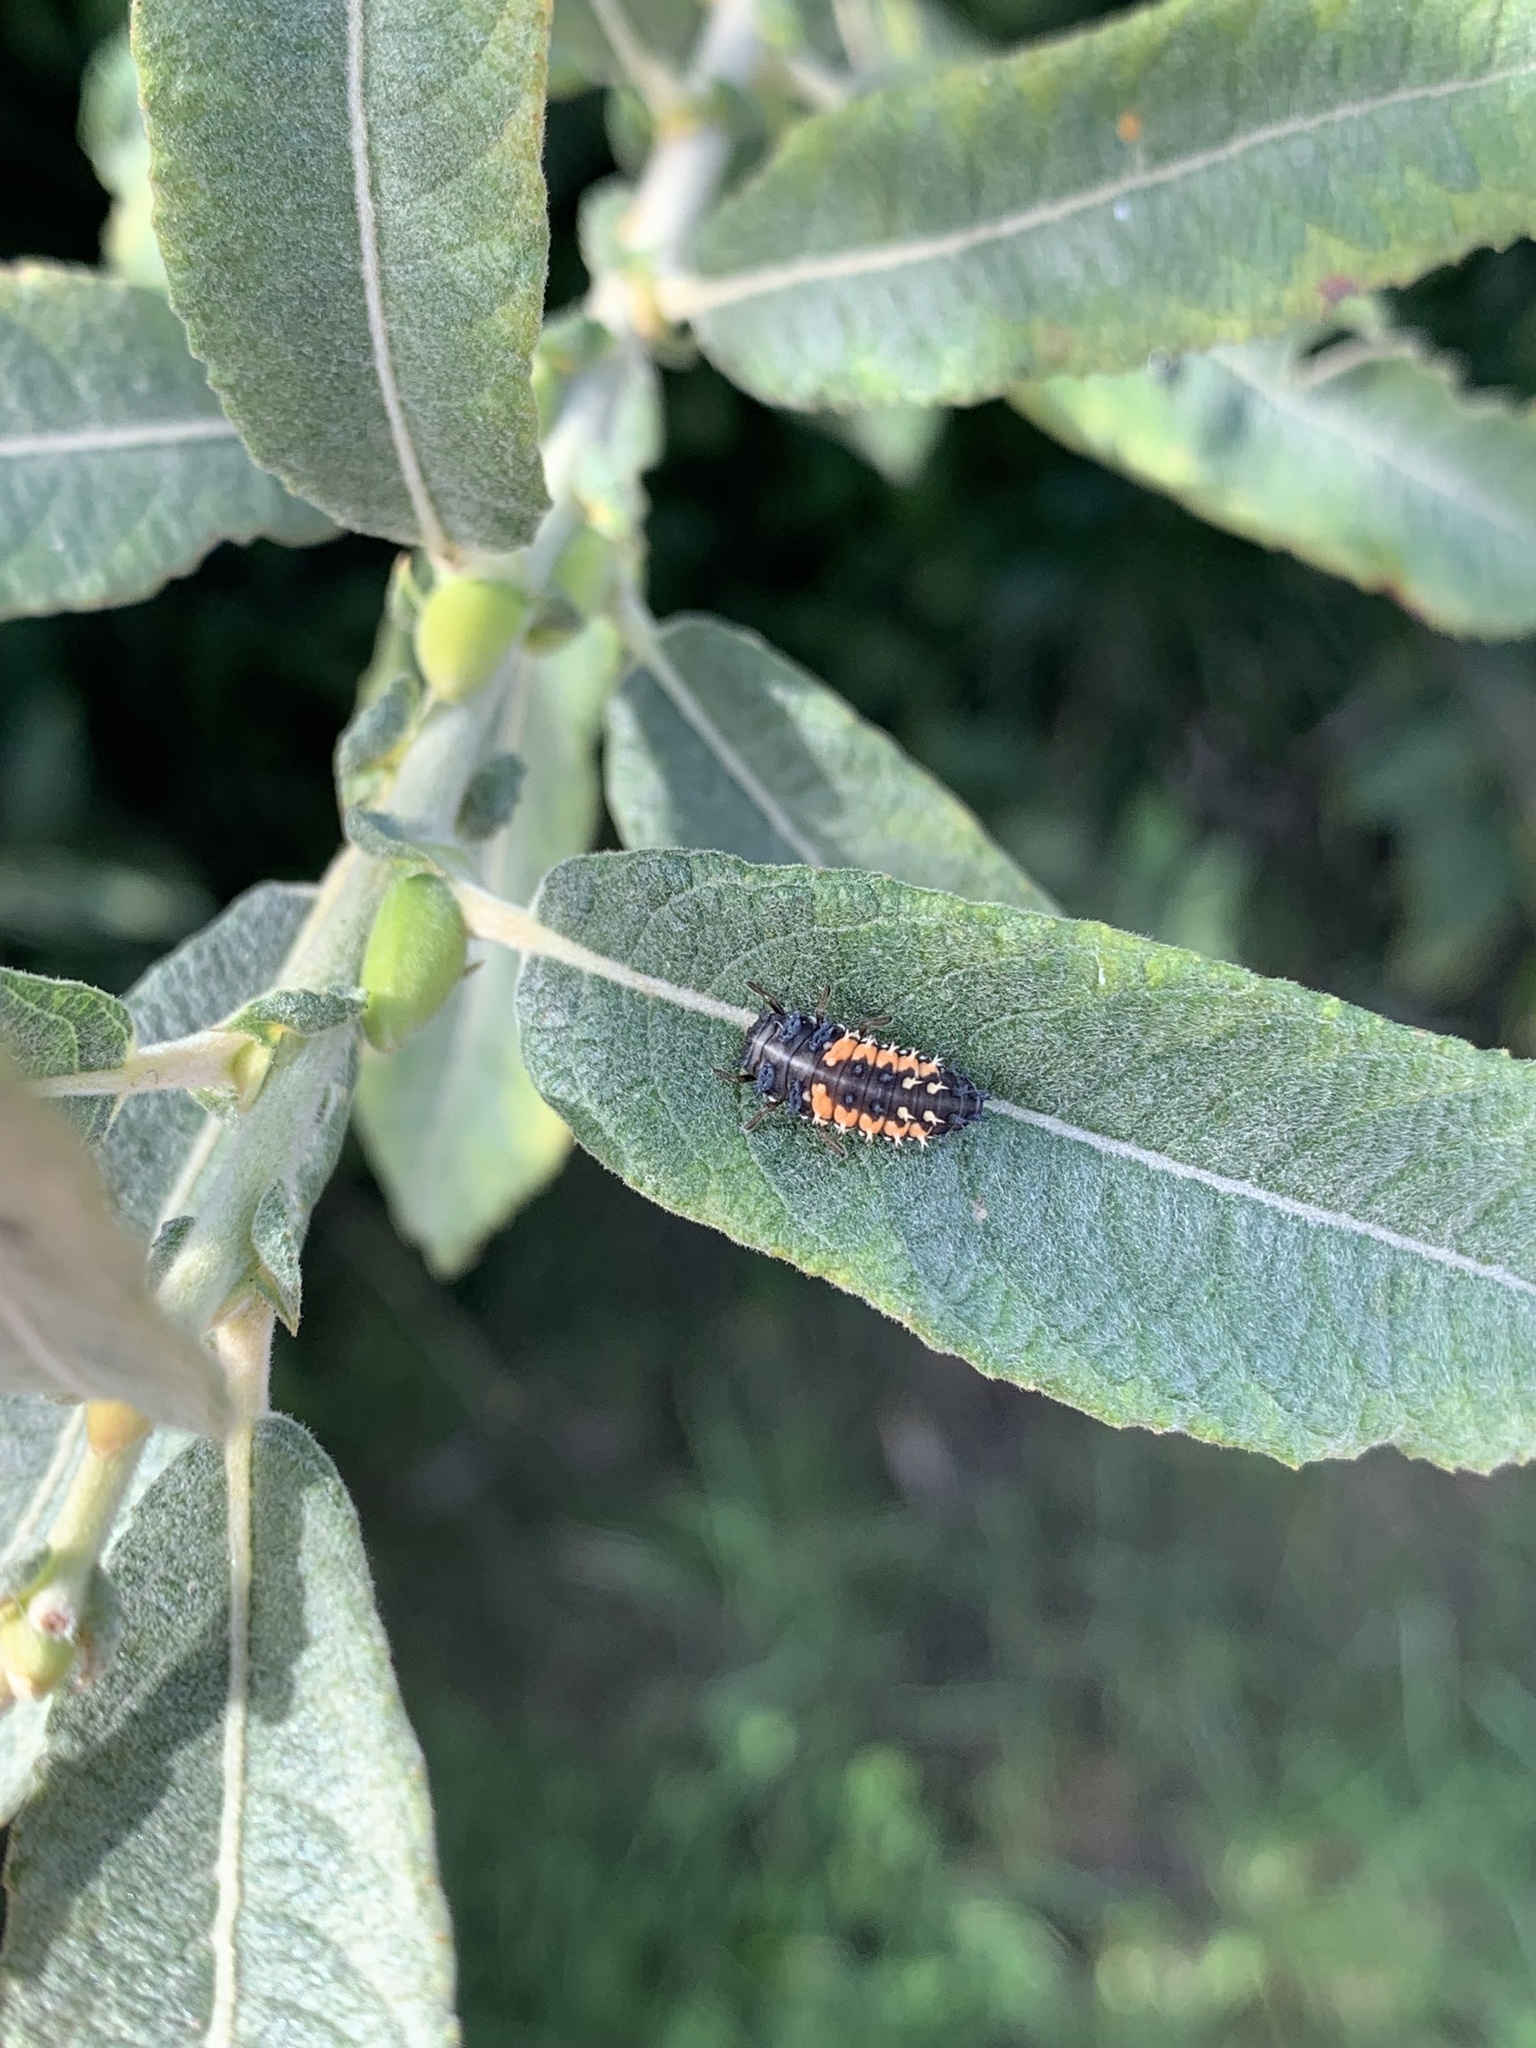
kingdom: Animalia
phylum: Arthropoda
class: Insecta
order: Coleoptera
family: Coccinellidae
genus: Harmonia
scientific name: Harmonia axyridis
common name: Harlequin ladybird
